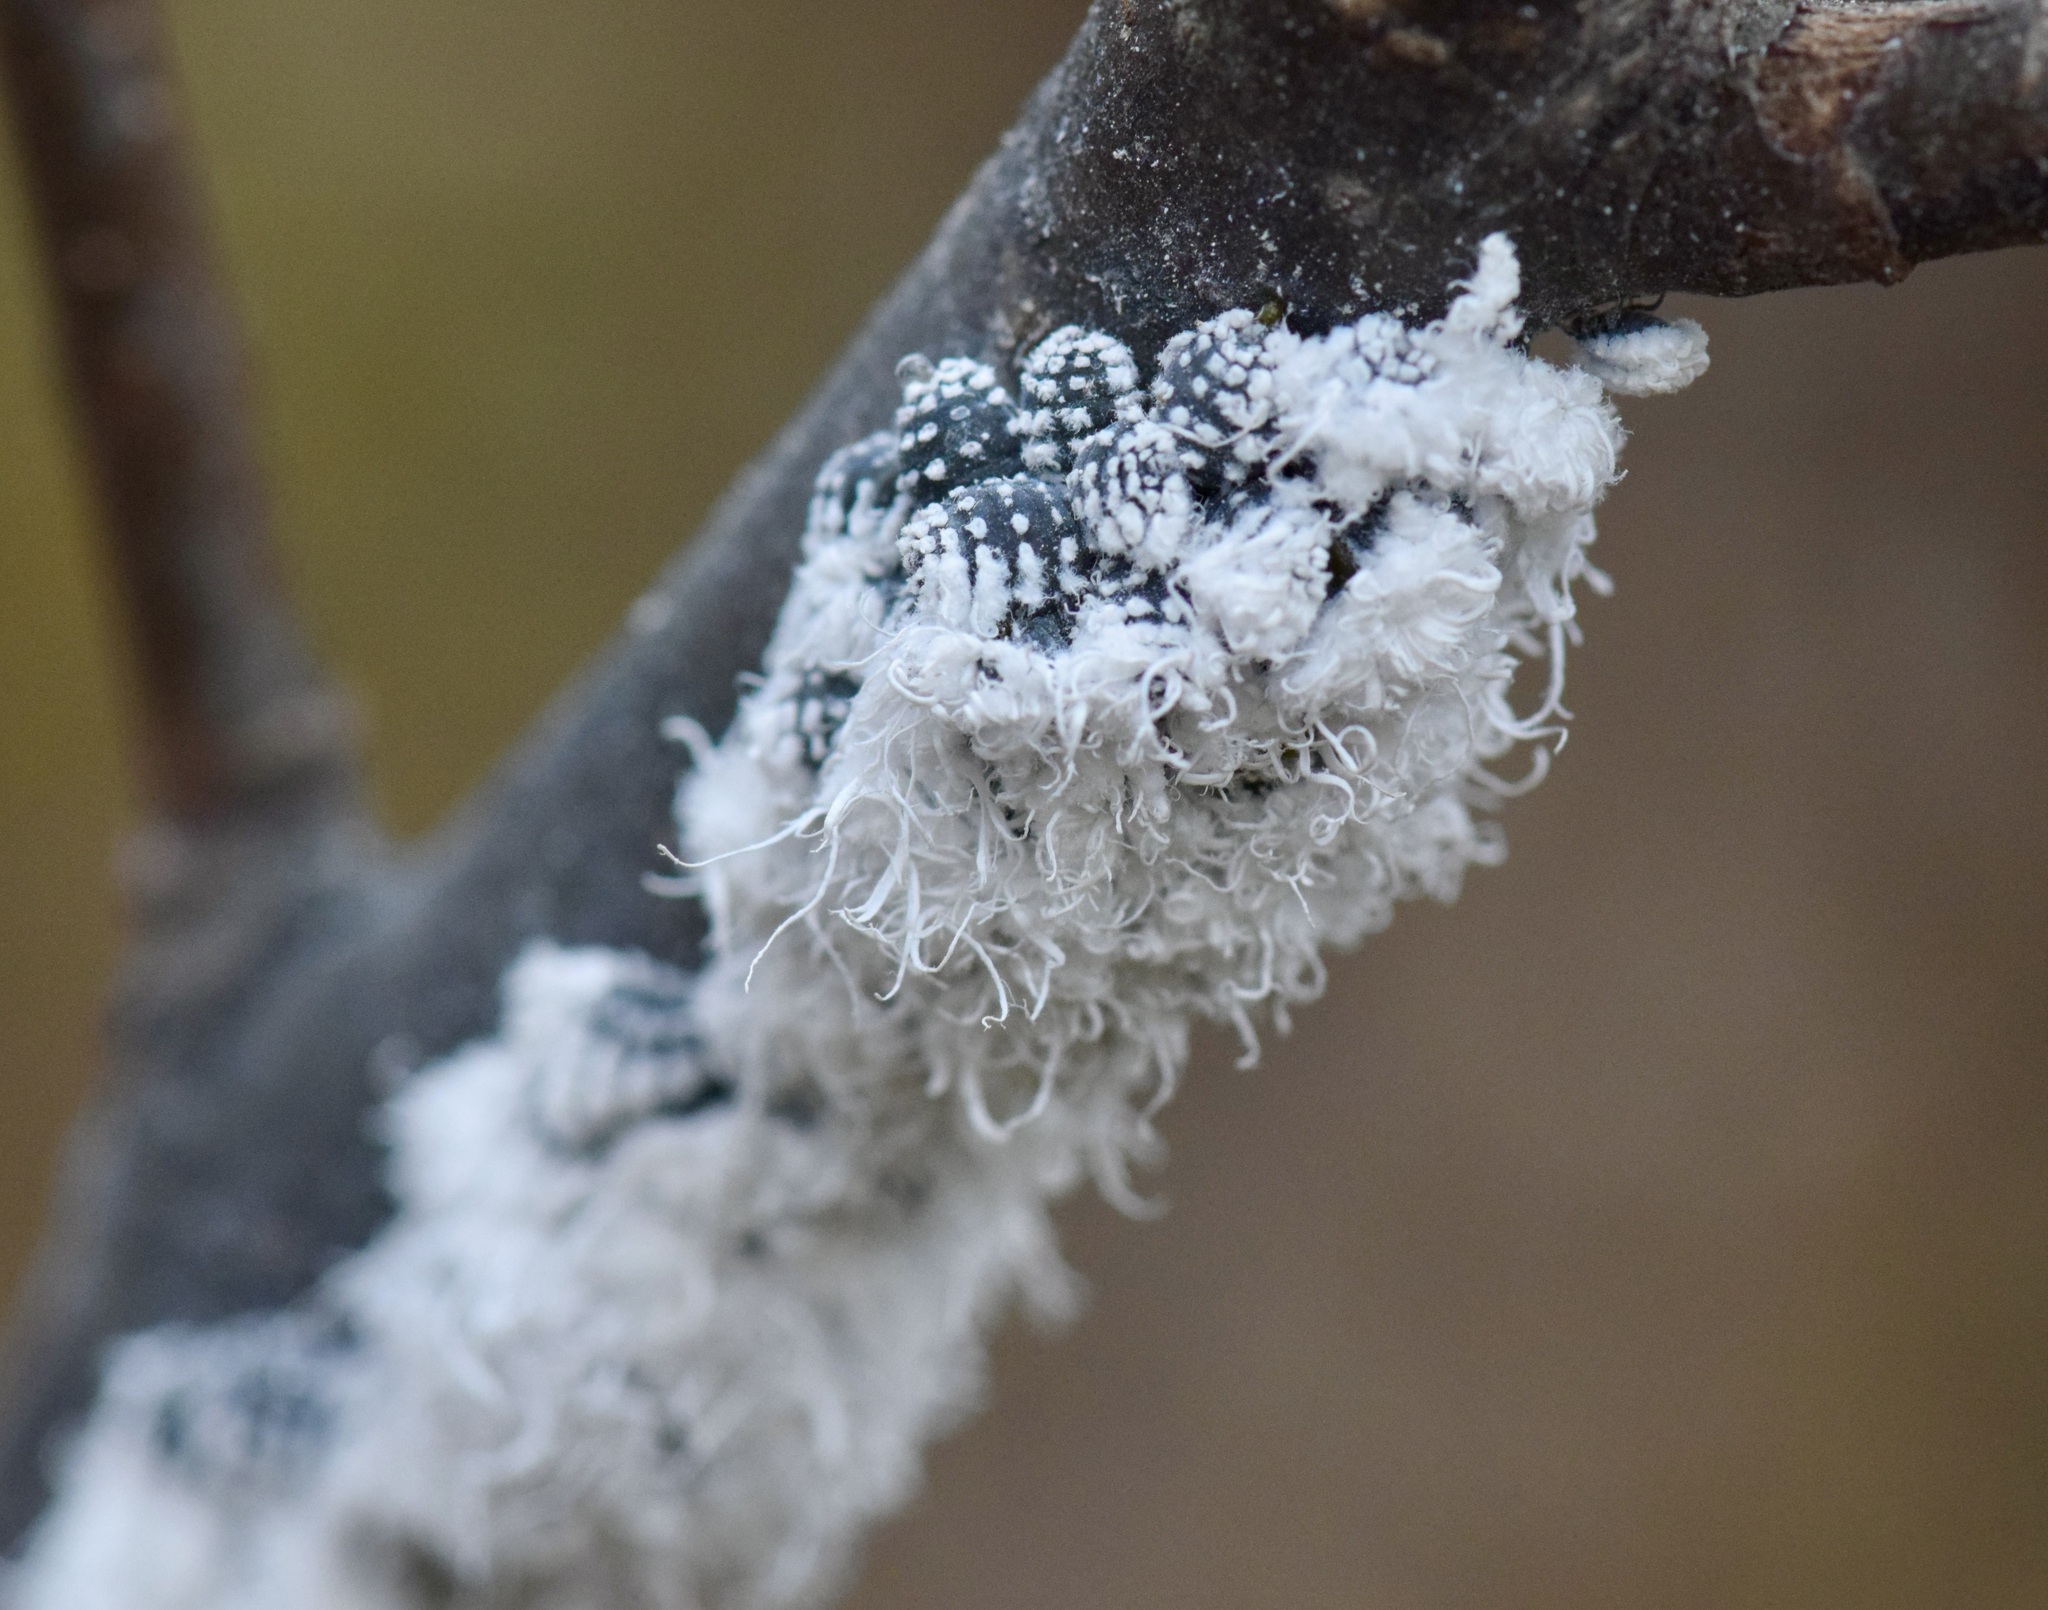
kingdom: Animalia
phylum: Arthropoda
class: Insecta
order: Hemiptera
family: Aphididae
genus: Prociphilus
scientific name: Prociphilus tessellatus
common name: Woolly alder aphid
